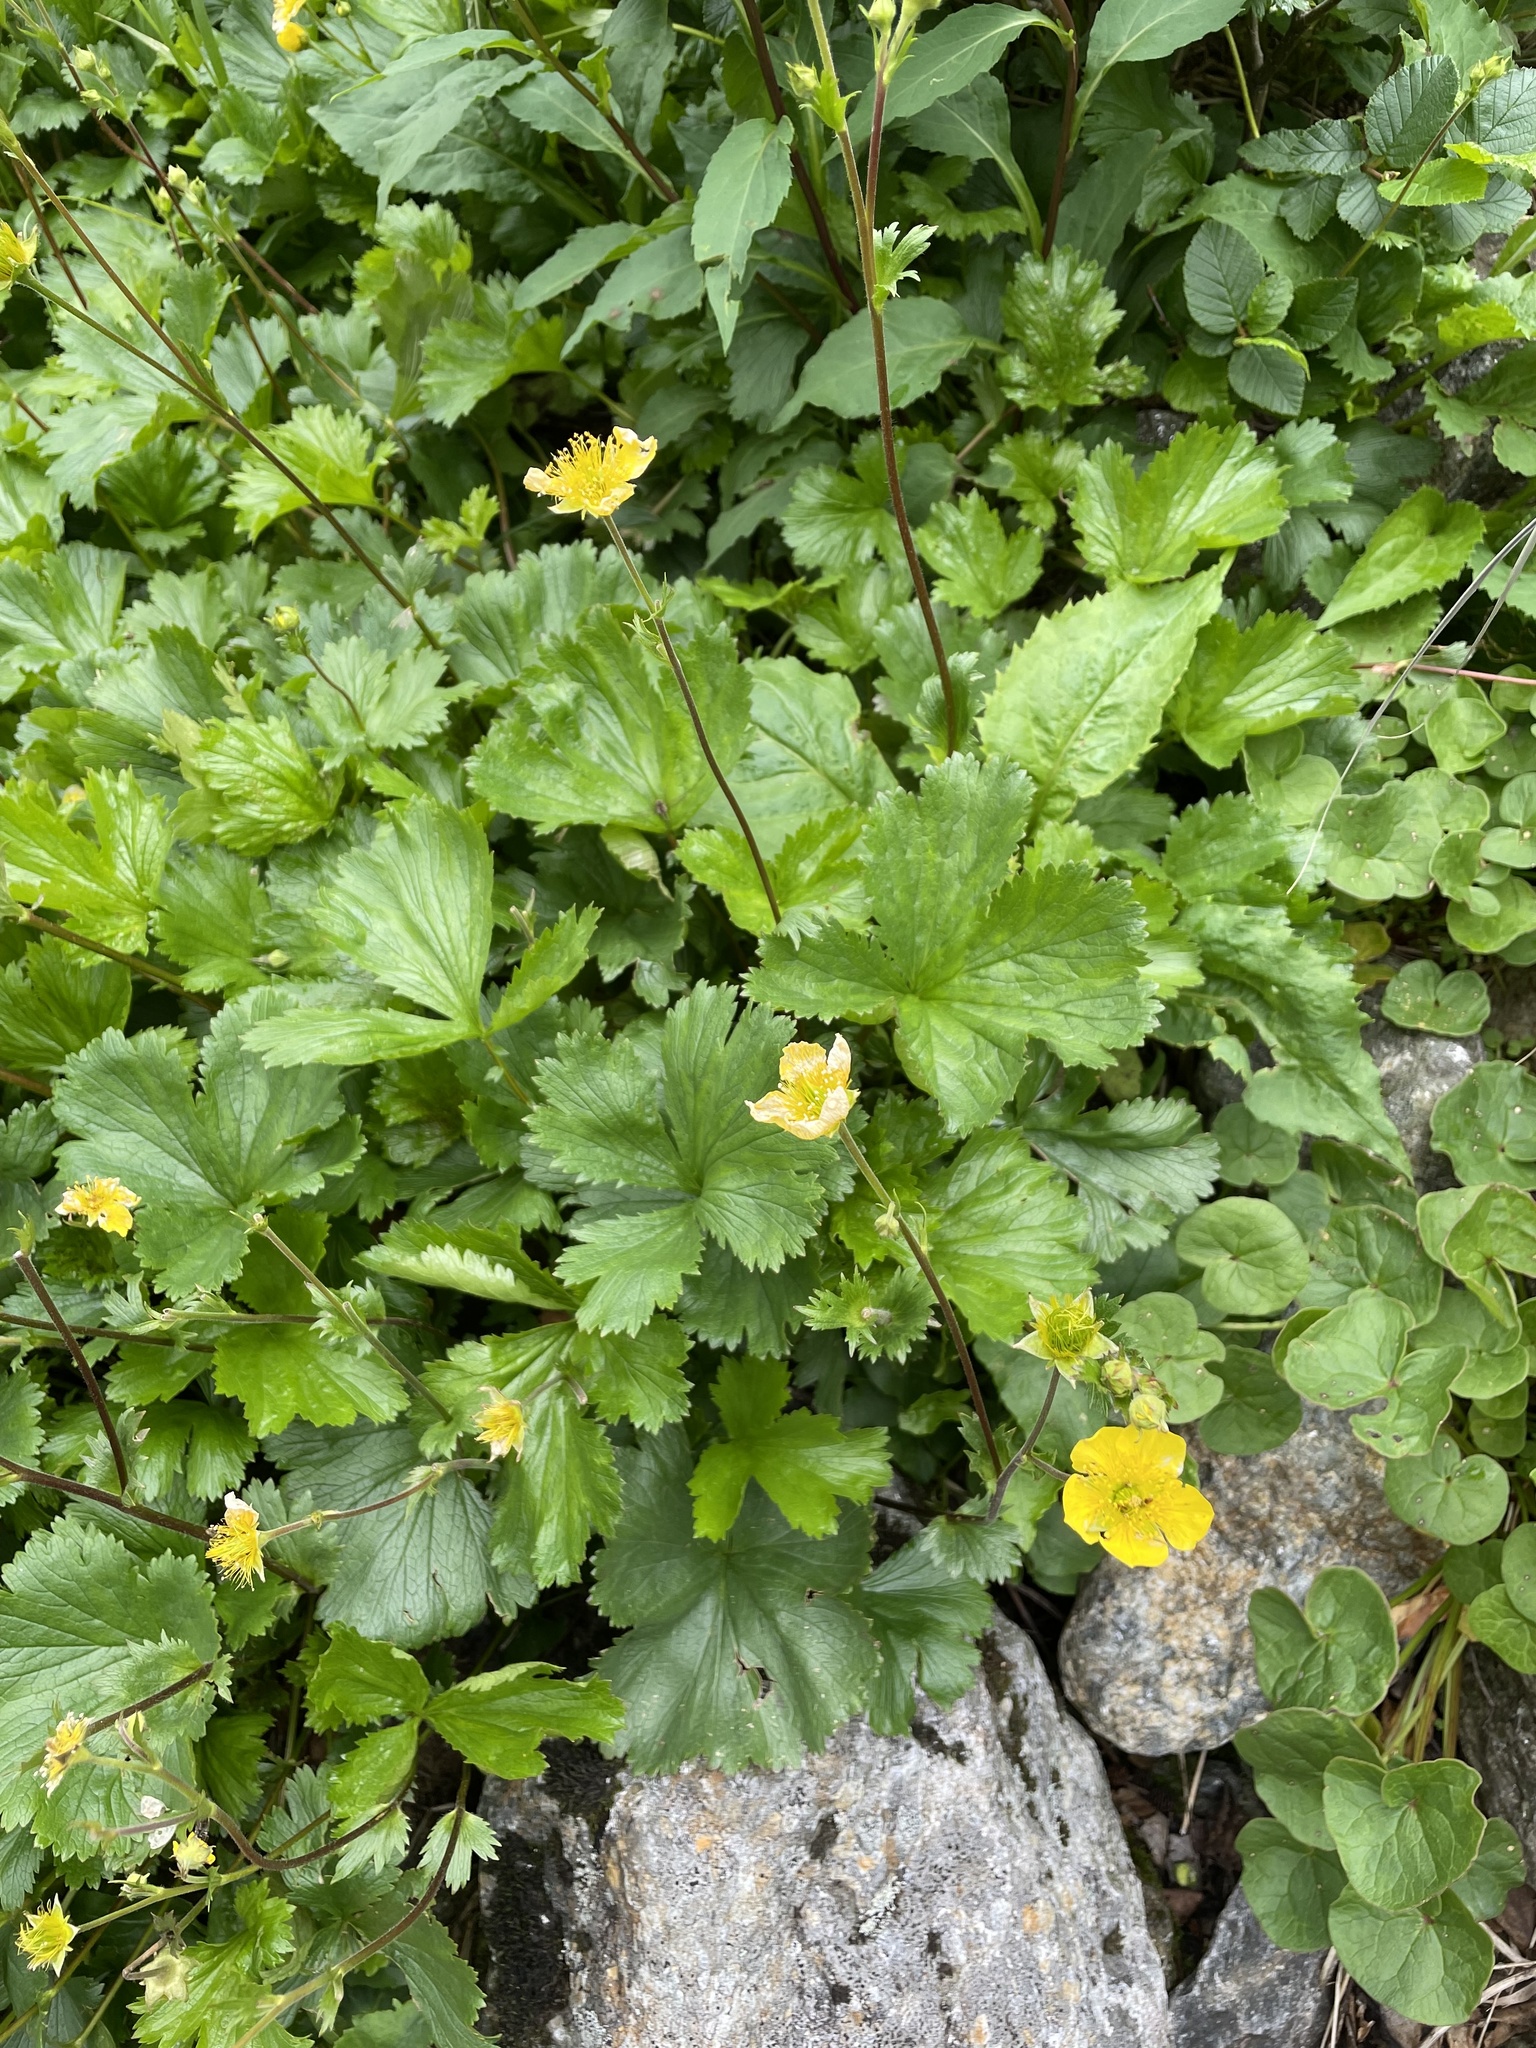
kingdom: Plantae
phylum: Tracheophyta
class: Magnoliopsida
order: Rosales
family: Rosaceae
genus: Geum
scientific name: Geum peckii
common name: Eastern mountain avens
